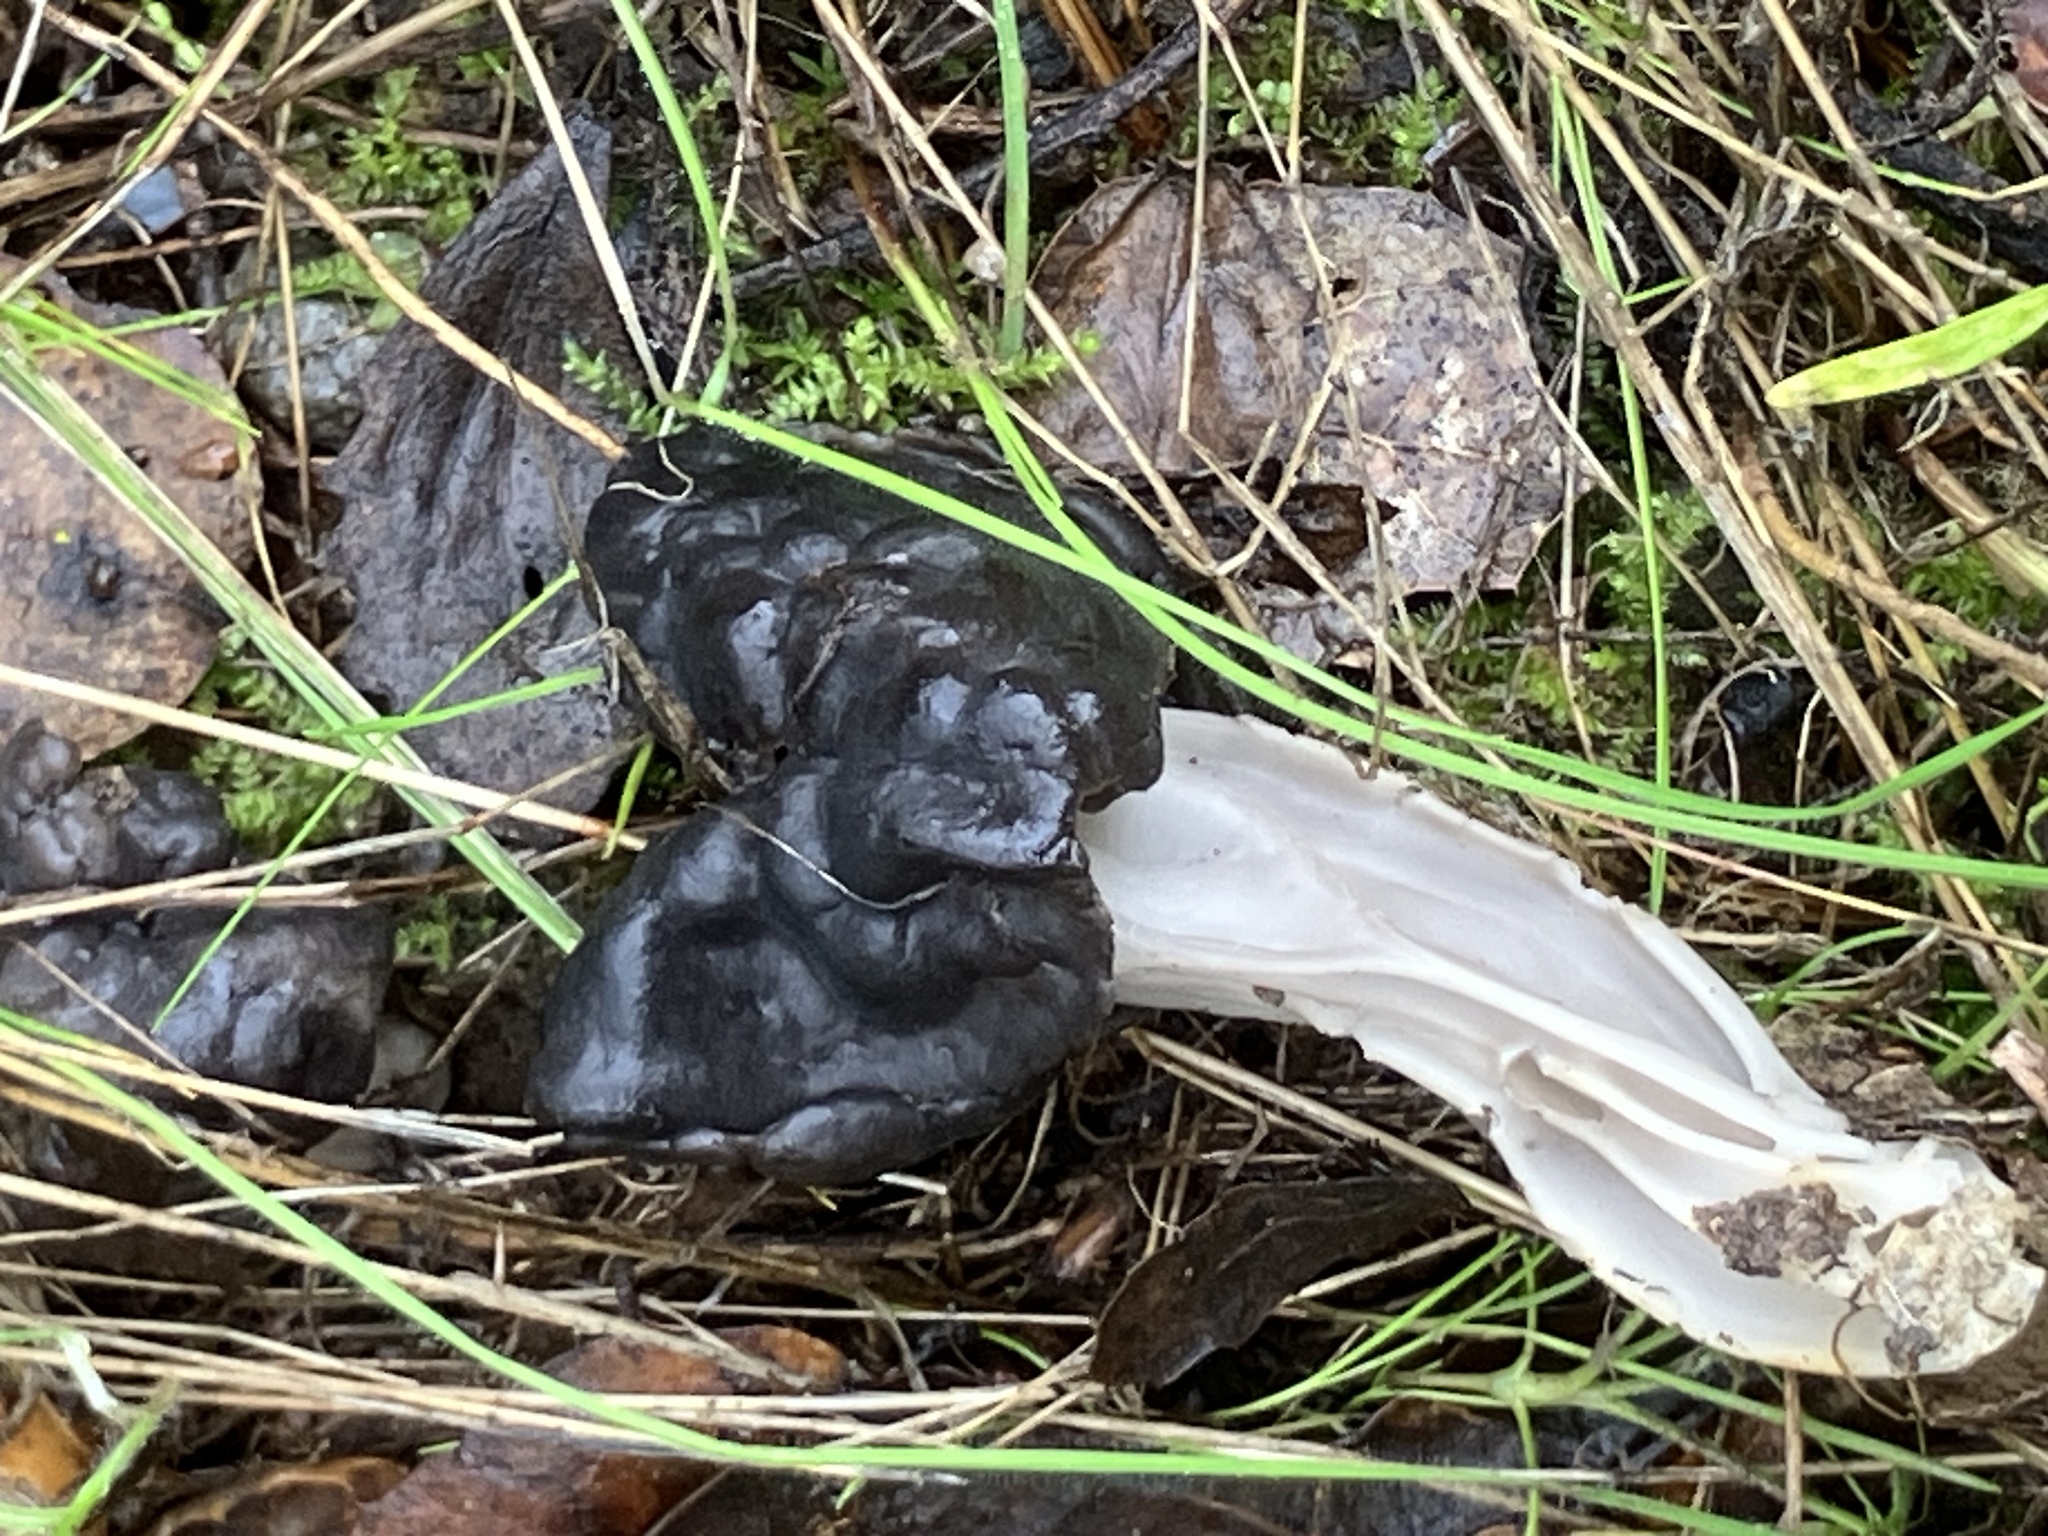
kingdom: Fungi
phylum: Ascomycota
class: Pezizomycetes
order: Pezizales
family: Helvellaceae
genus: Helvella
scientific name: Helvella dryophila
